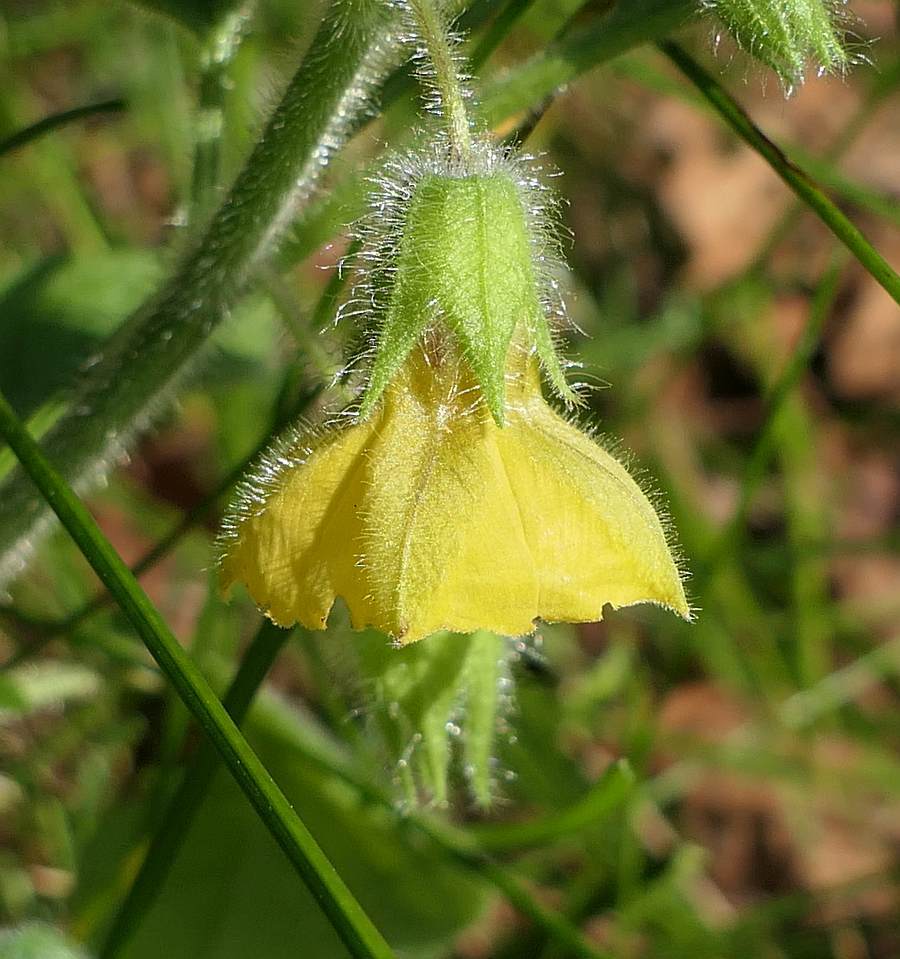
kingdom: Plantae
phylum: Tracheophyta
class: Magnoliopsida
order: Solanales
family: Solanaceae
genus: Physalis
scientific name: Physalis heterophylla
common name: Clammy ground-cherry
